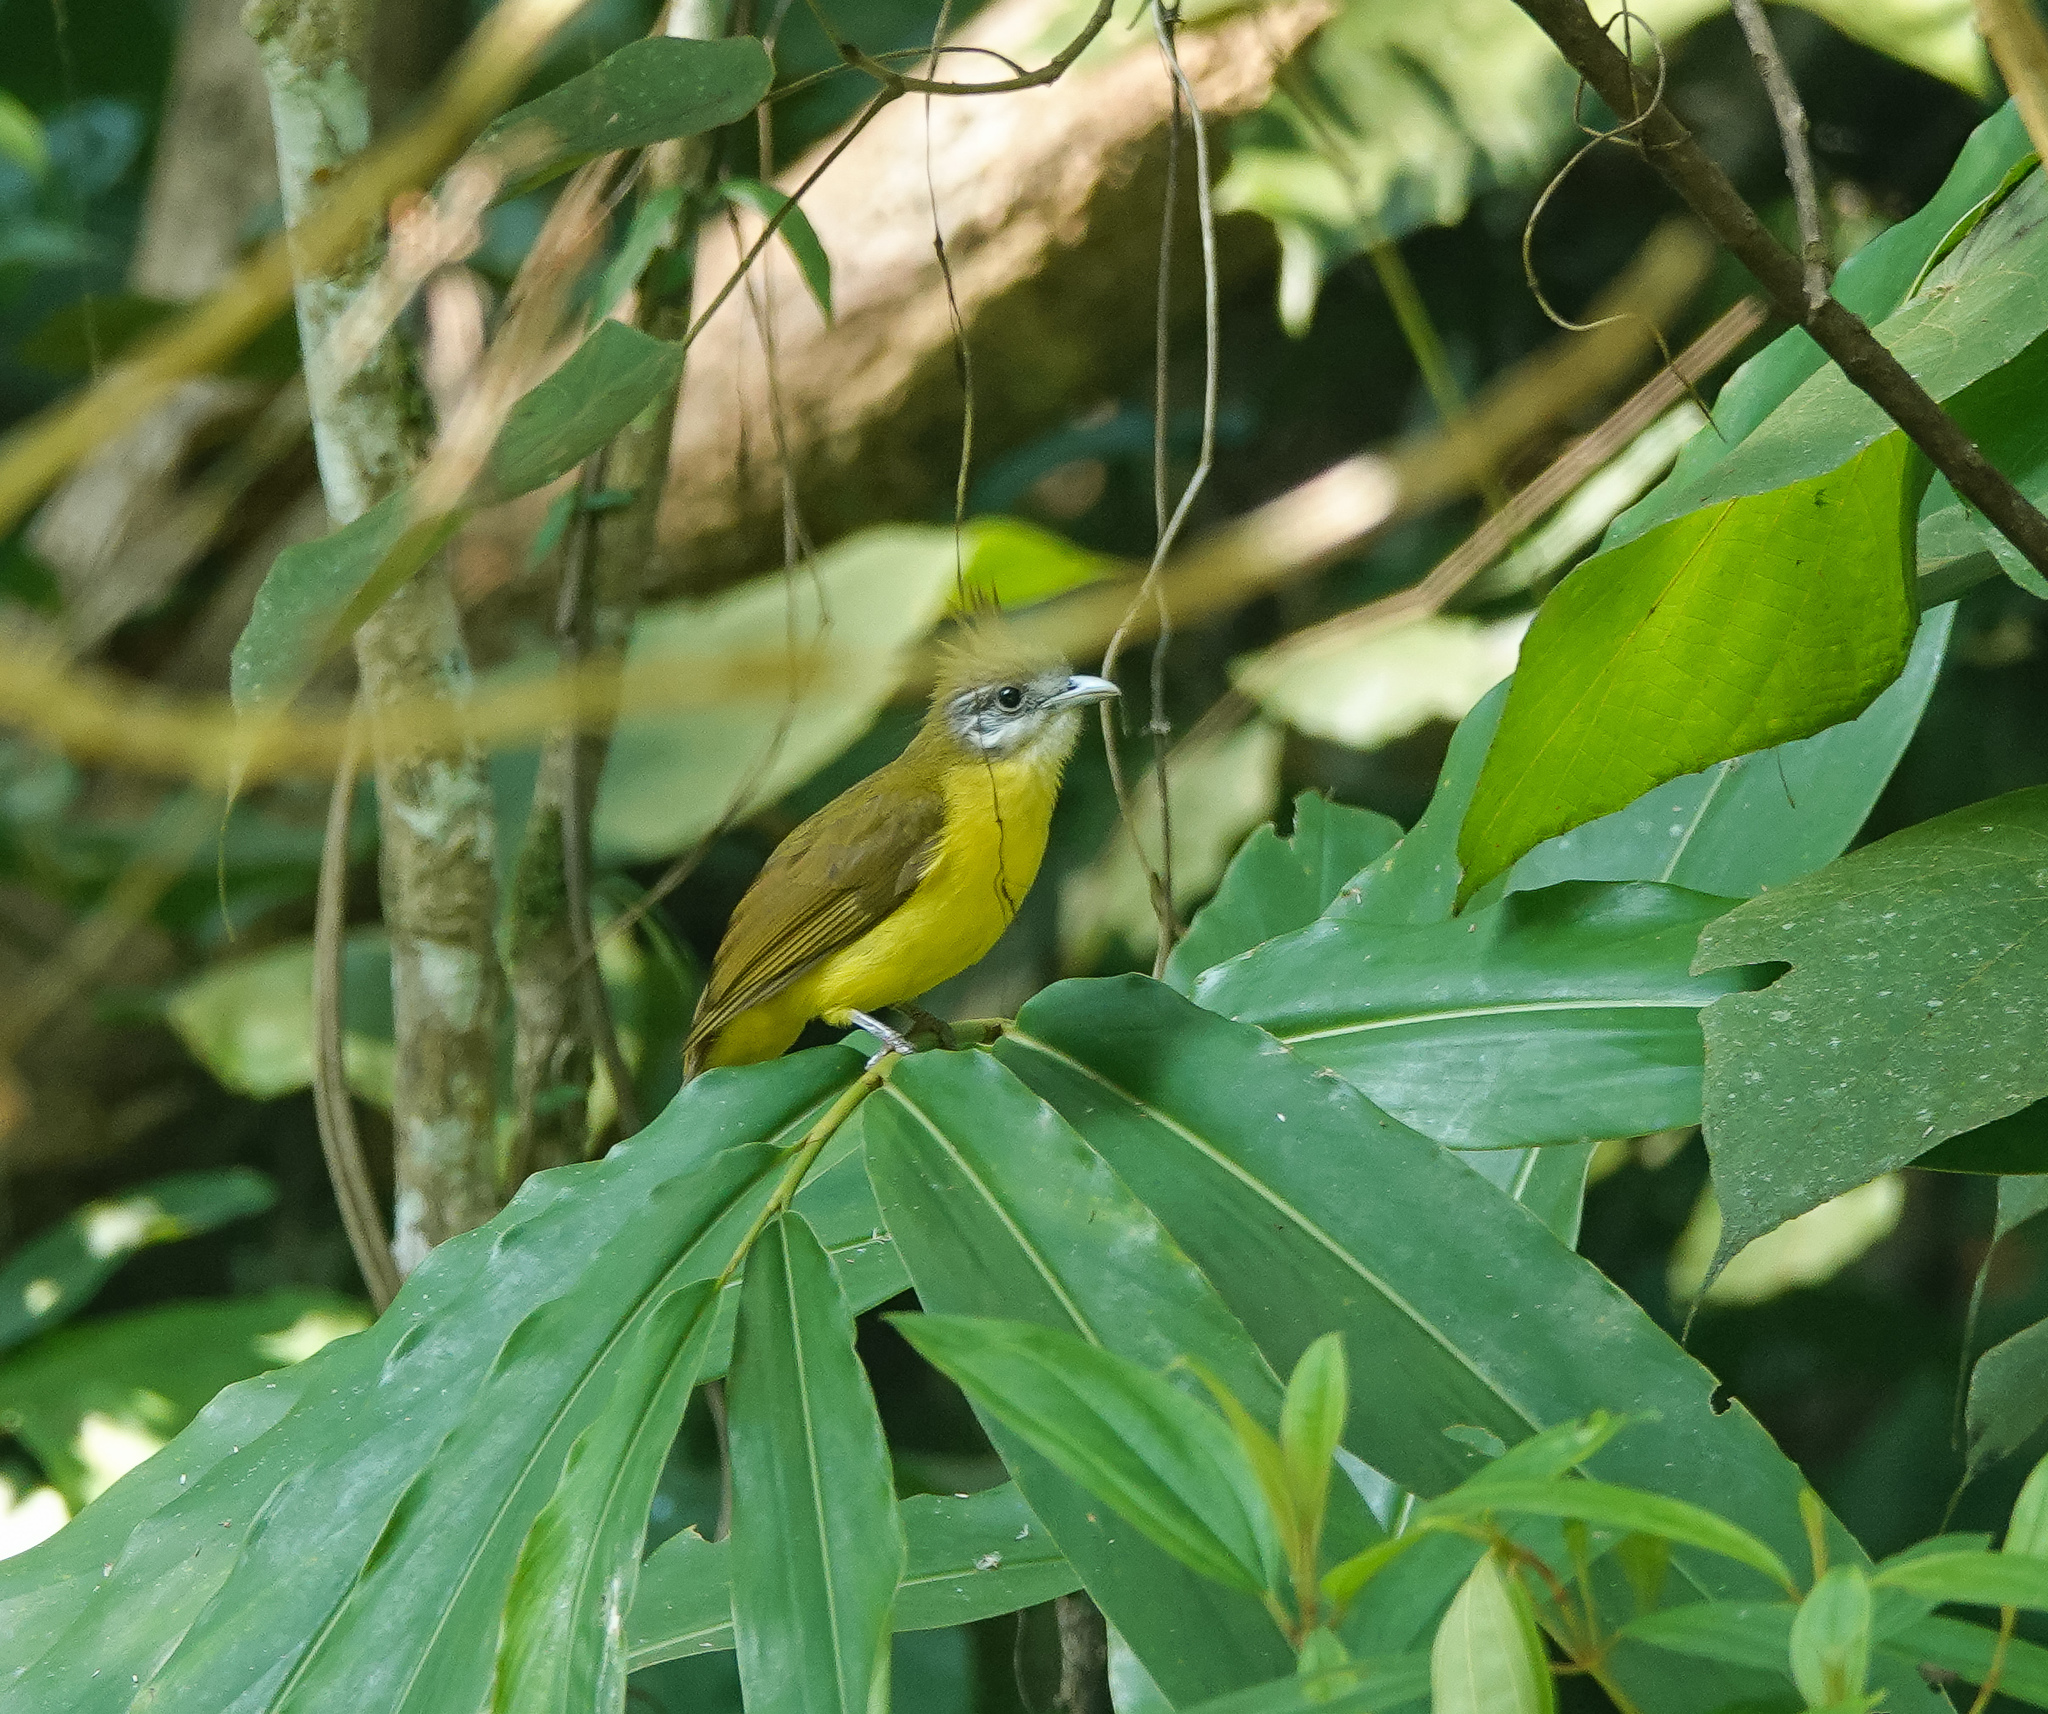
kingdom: Animalia
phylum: Chordata
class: Aves
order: Passeriformes
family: Pycnonotidae
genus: Alophoixus
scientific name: Alophoixus flaveolus
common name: White-throated bulbul
